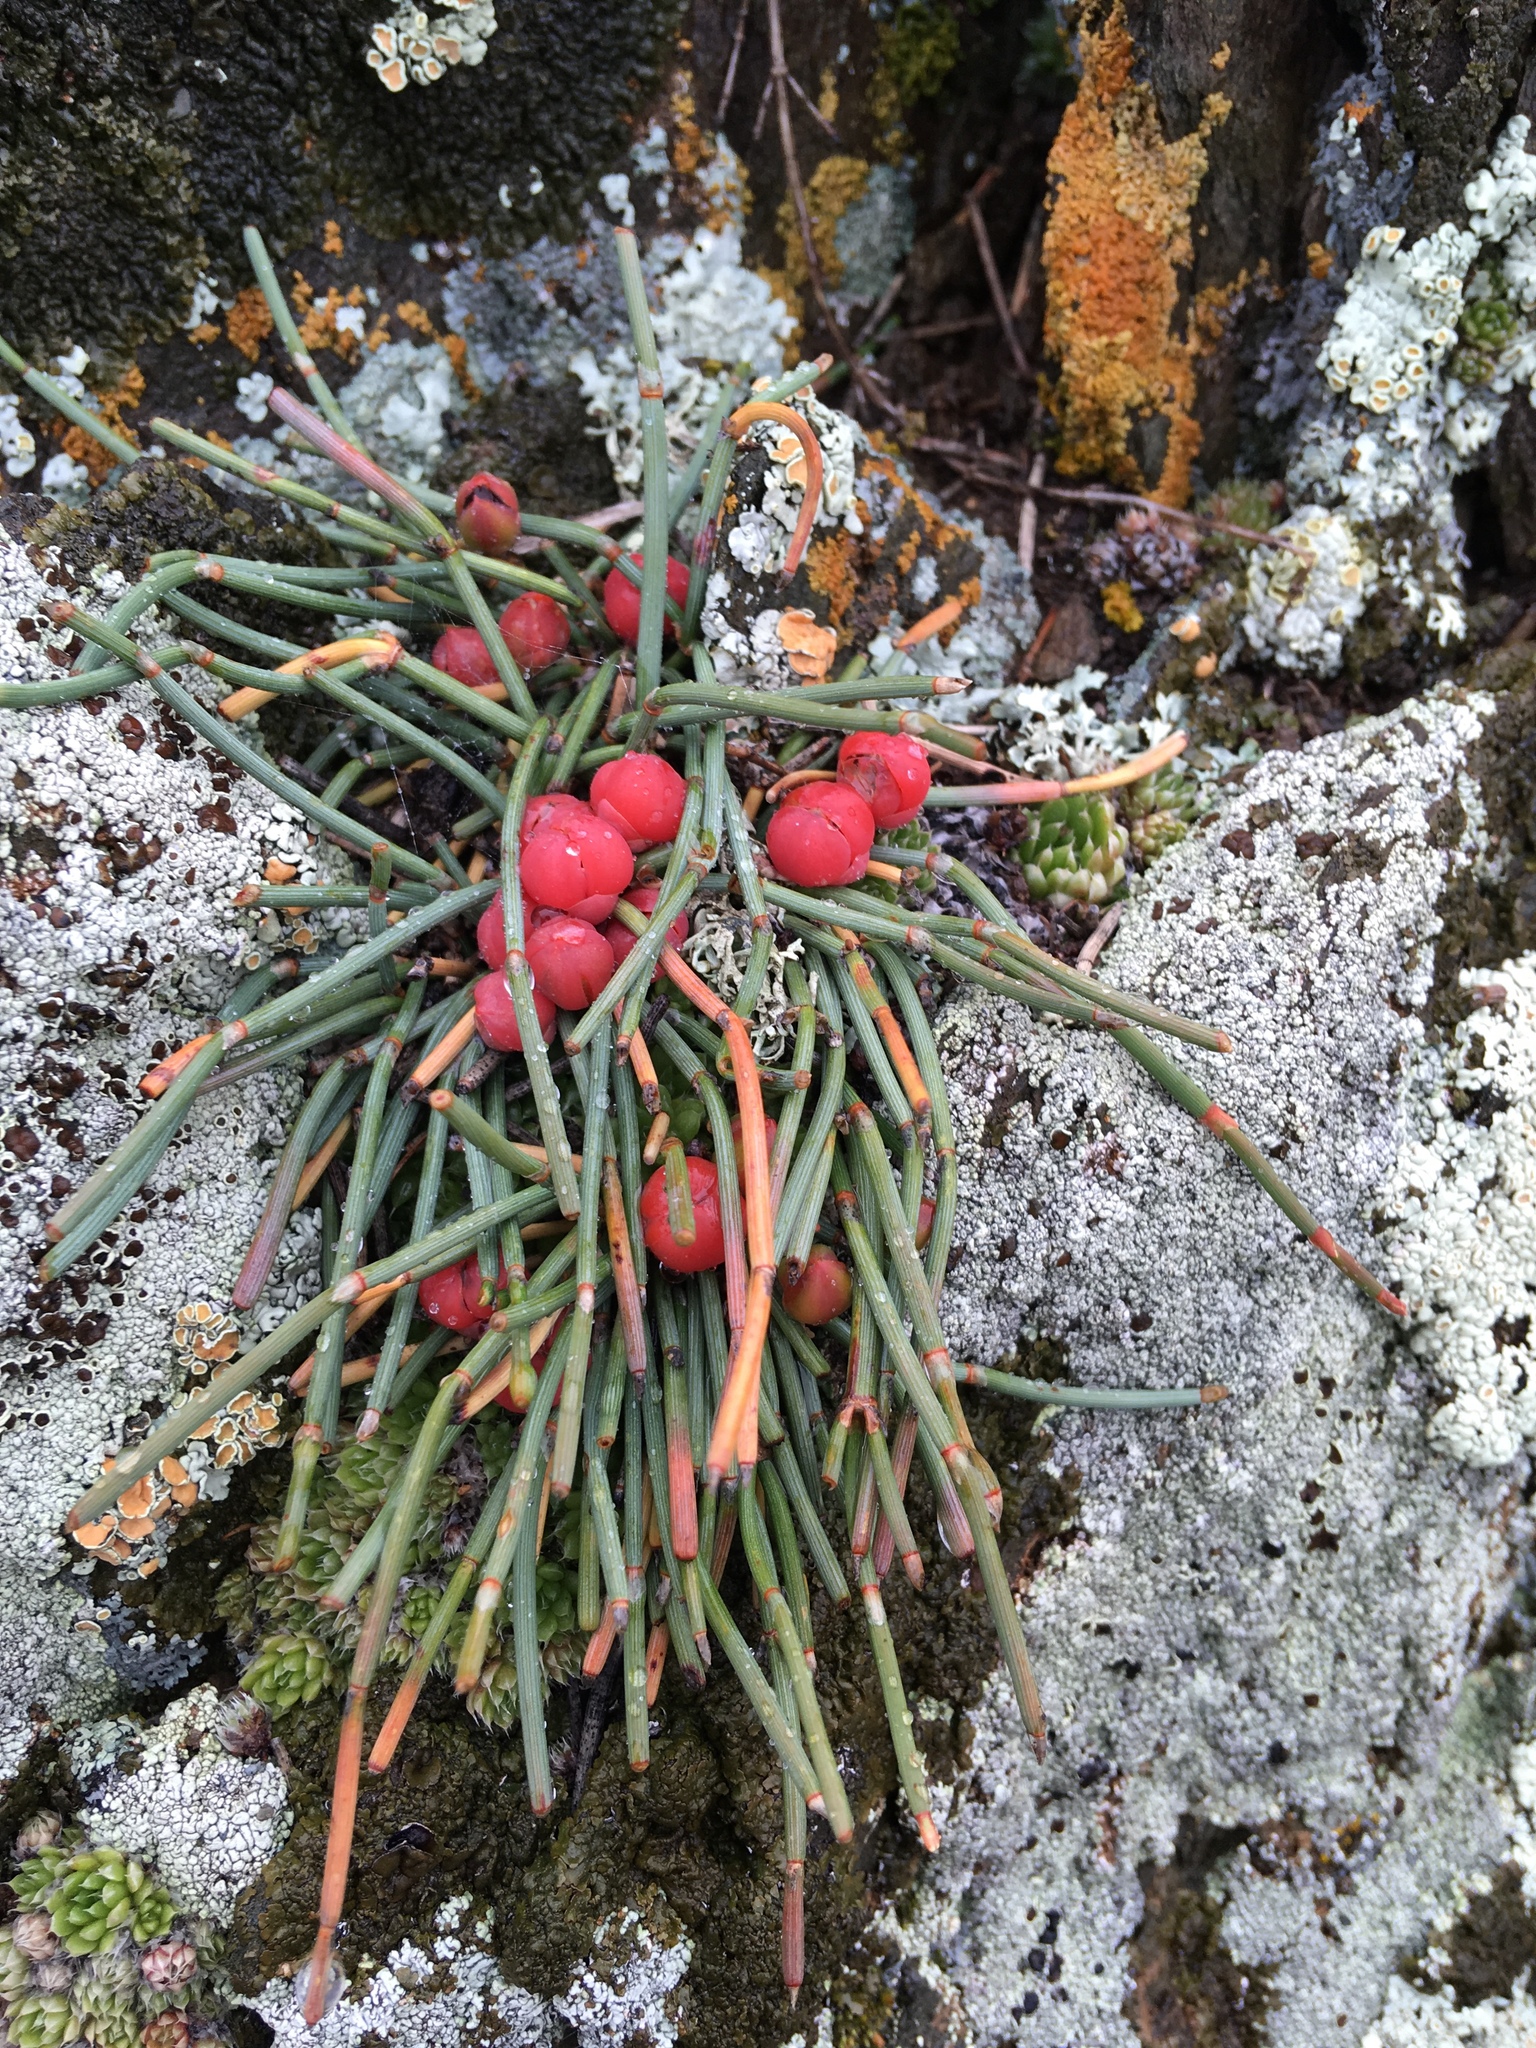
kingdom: Plantae
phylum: Tracheophyta
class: Gnetopsida
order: Ephedrales
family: Ephedraceae
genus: Ephedra
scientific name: Ephedra monosperma
